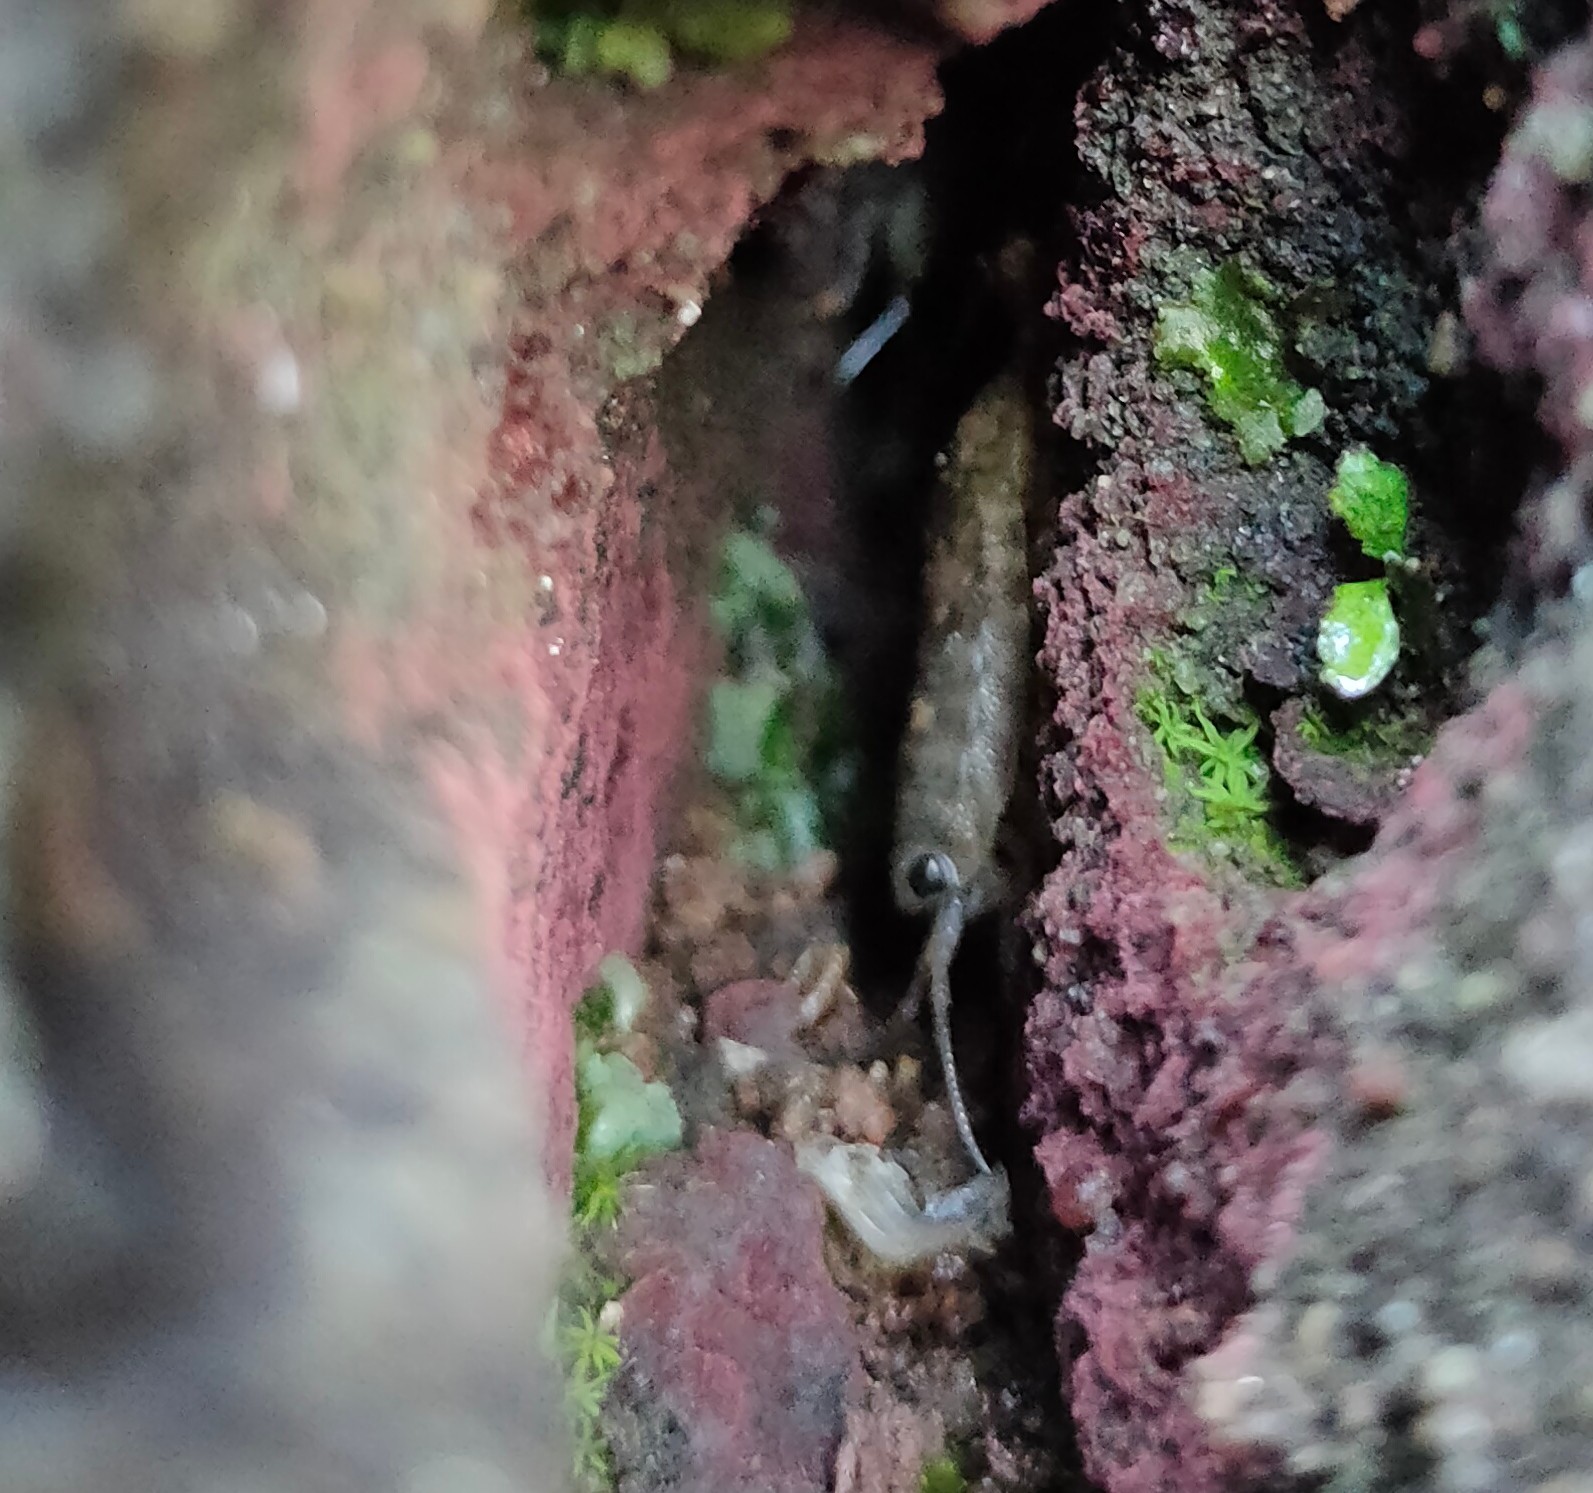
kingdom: Animalia
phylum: Arthropoda
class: Malacostraca
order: Isopoda
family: Ligiidae
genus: Ligia
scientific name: Ligia oceanica
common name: Sea slater
